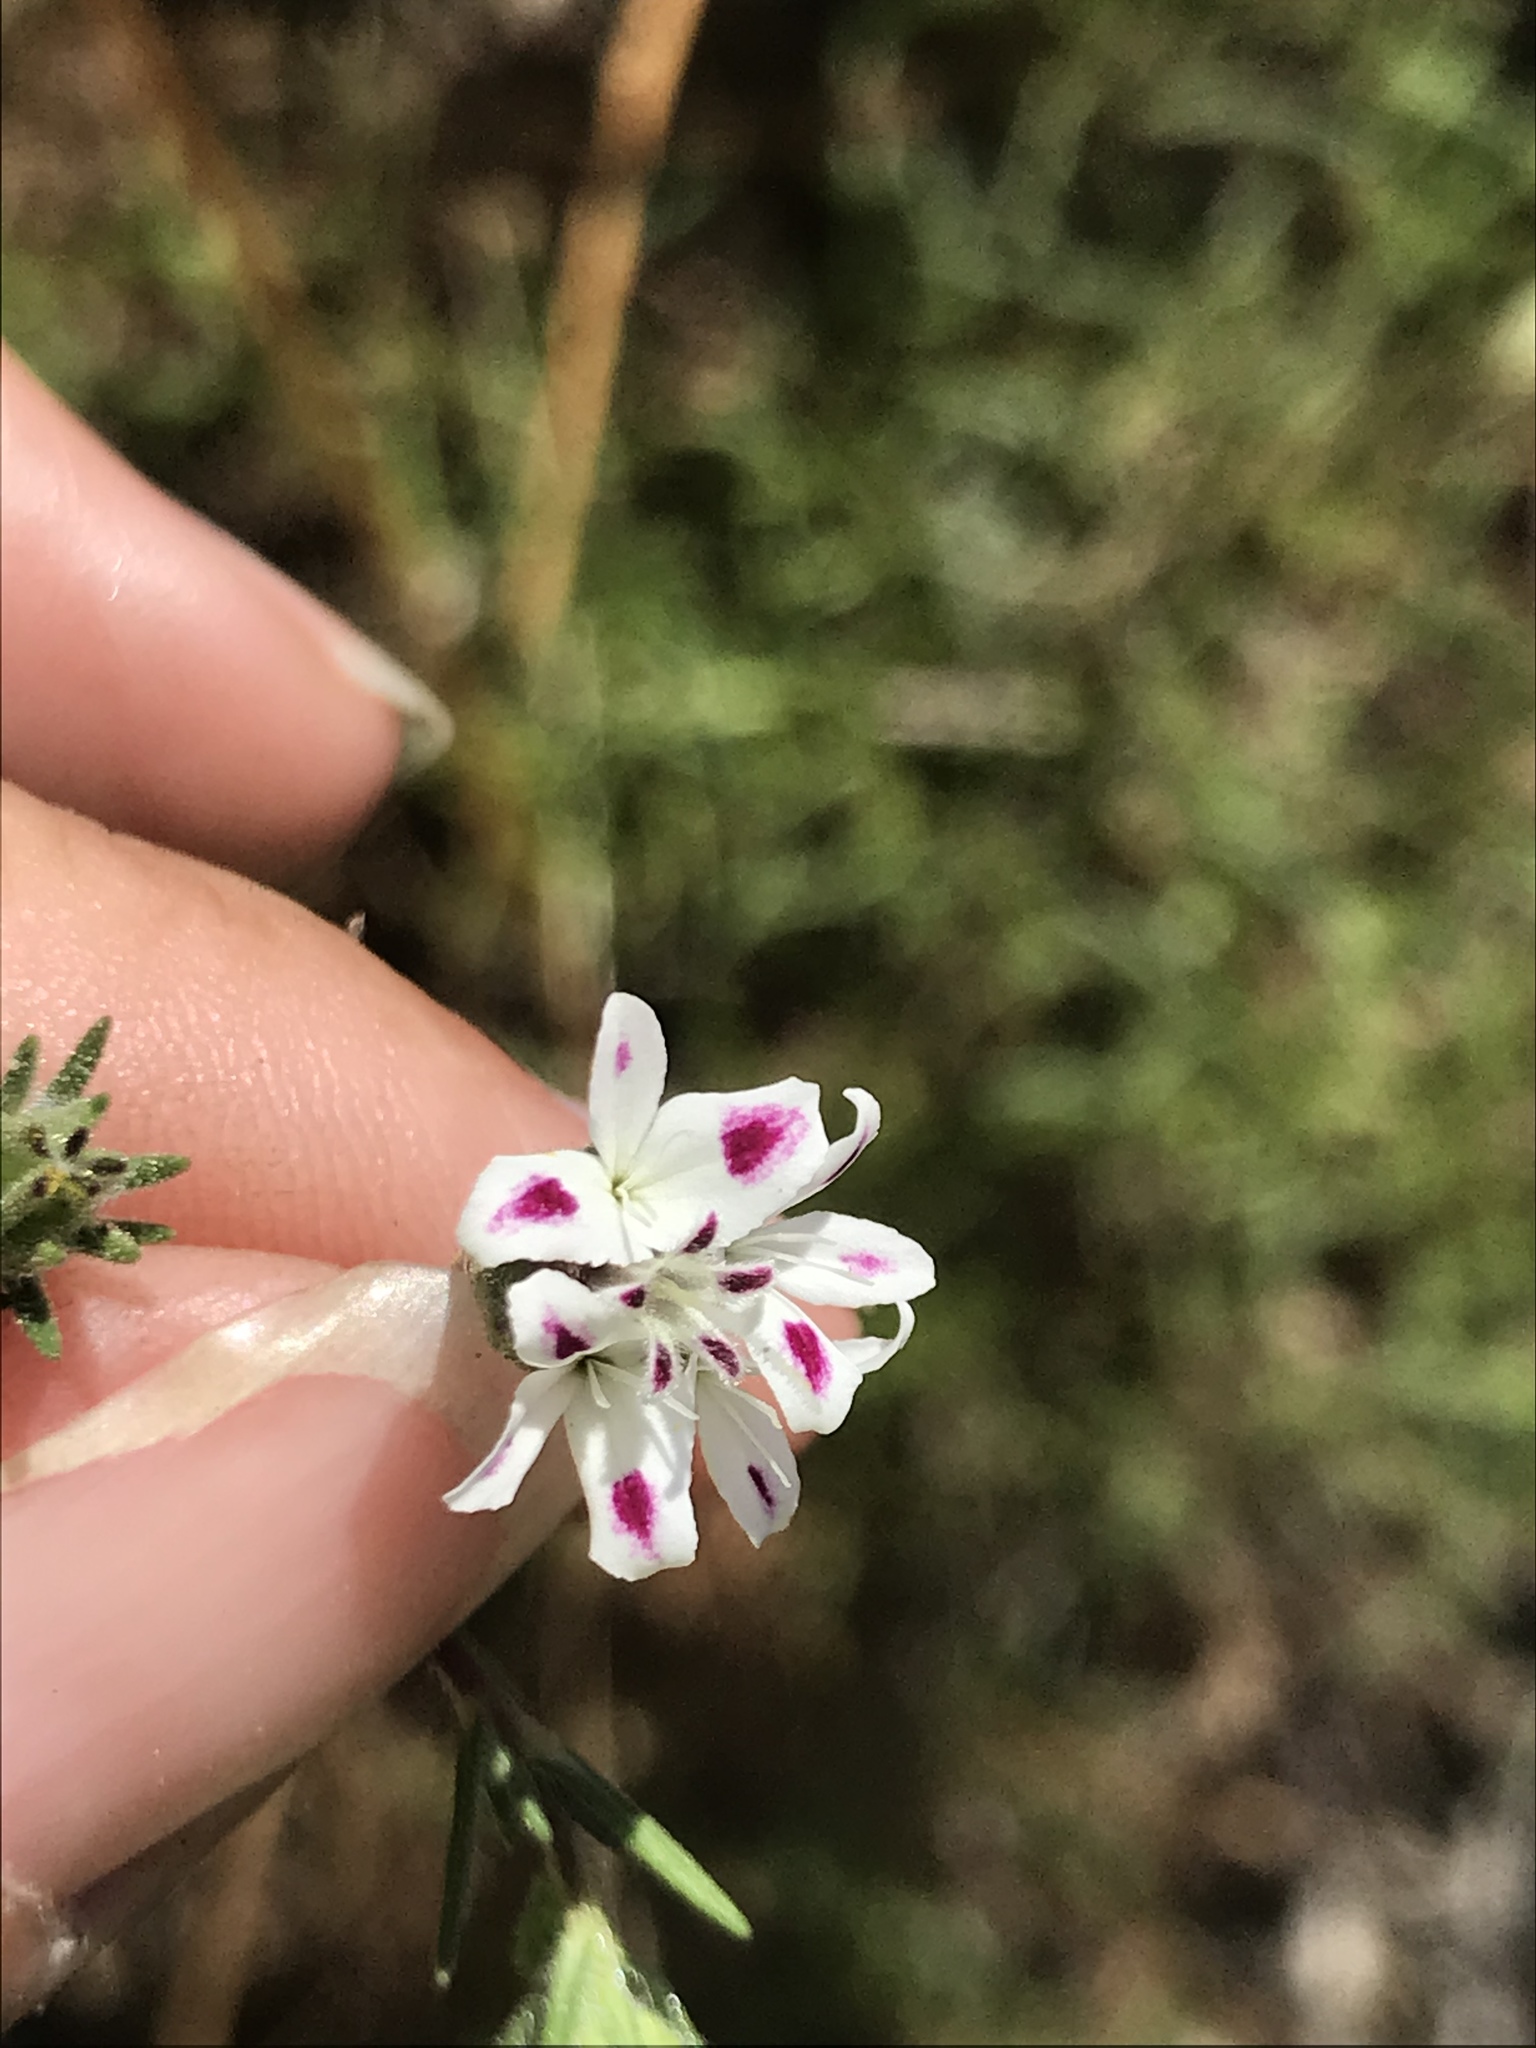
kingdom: Plantae
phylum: Tracheophyta
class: Magnoliopsida
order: Asterales
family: Asteraceae
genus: Osmadenia
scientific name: Osmadenia tenella
